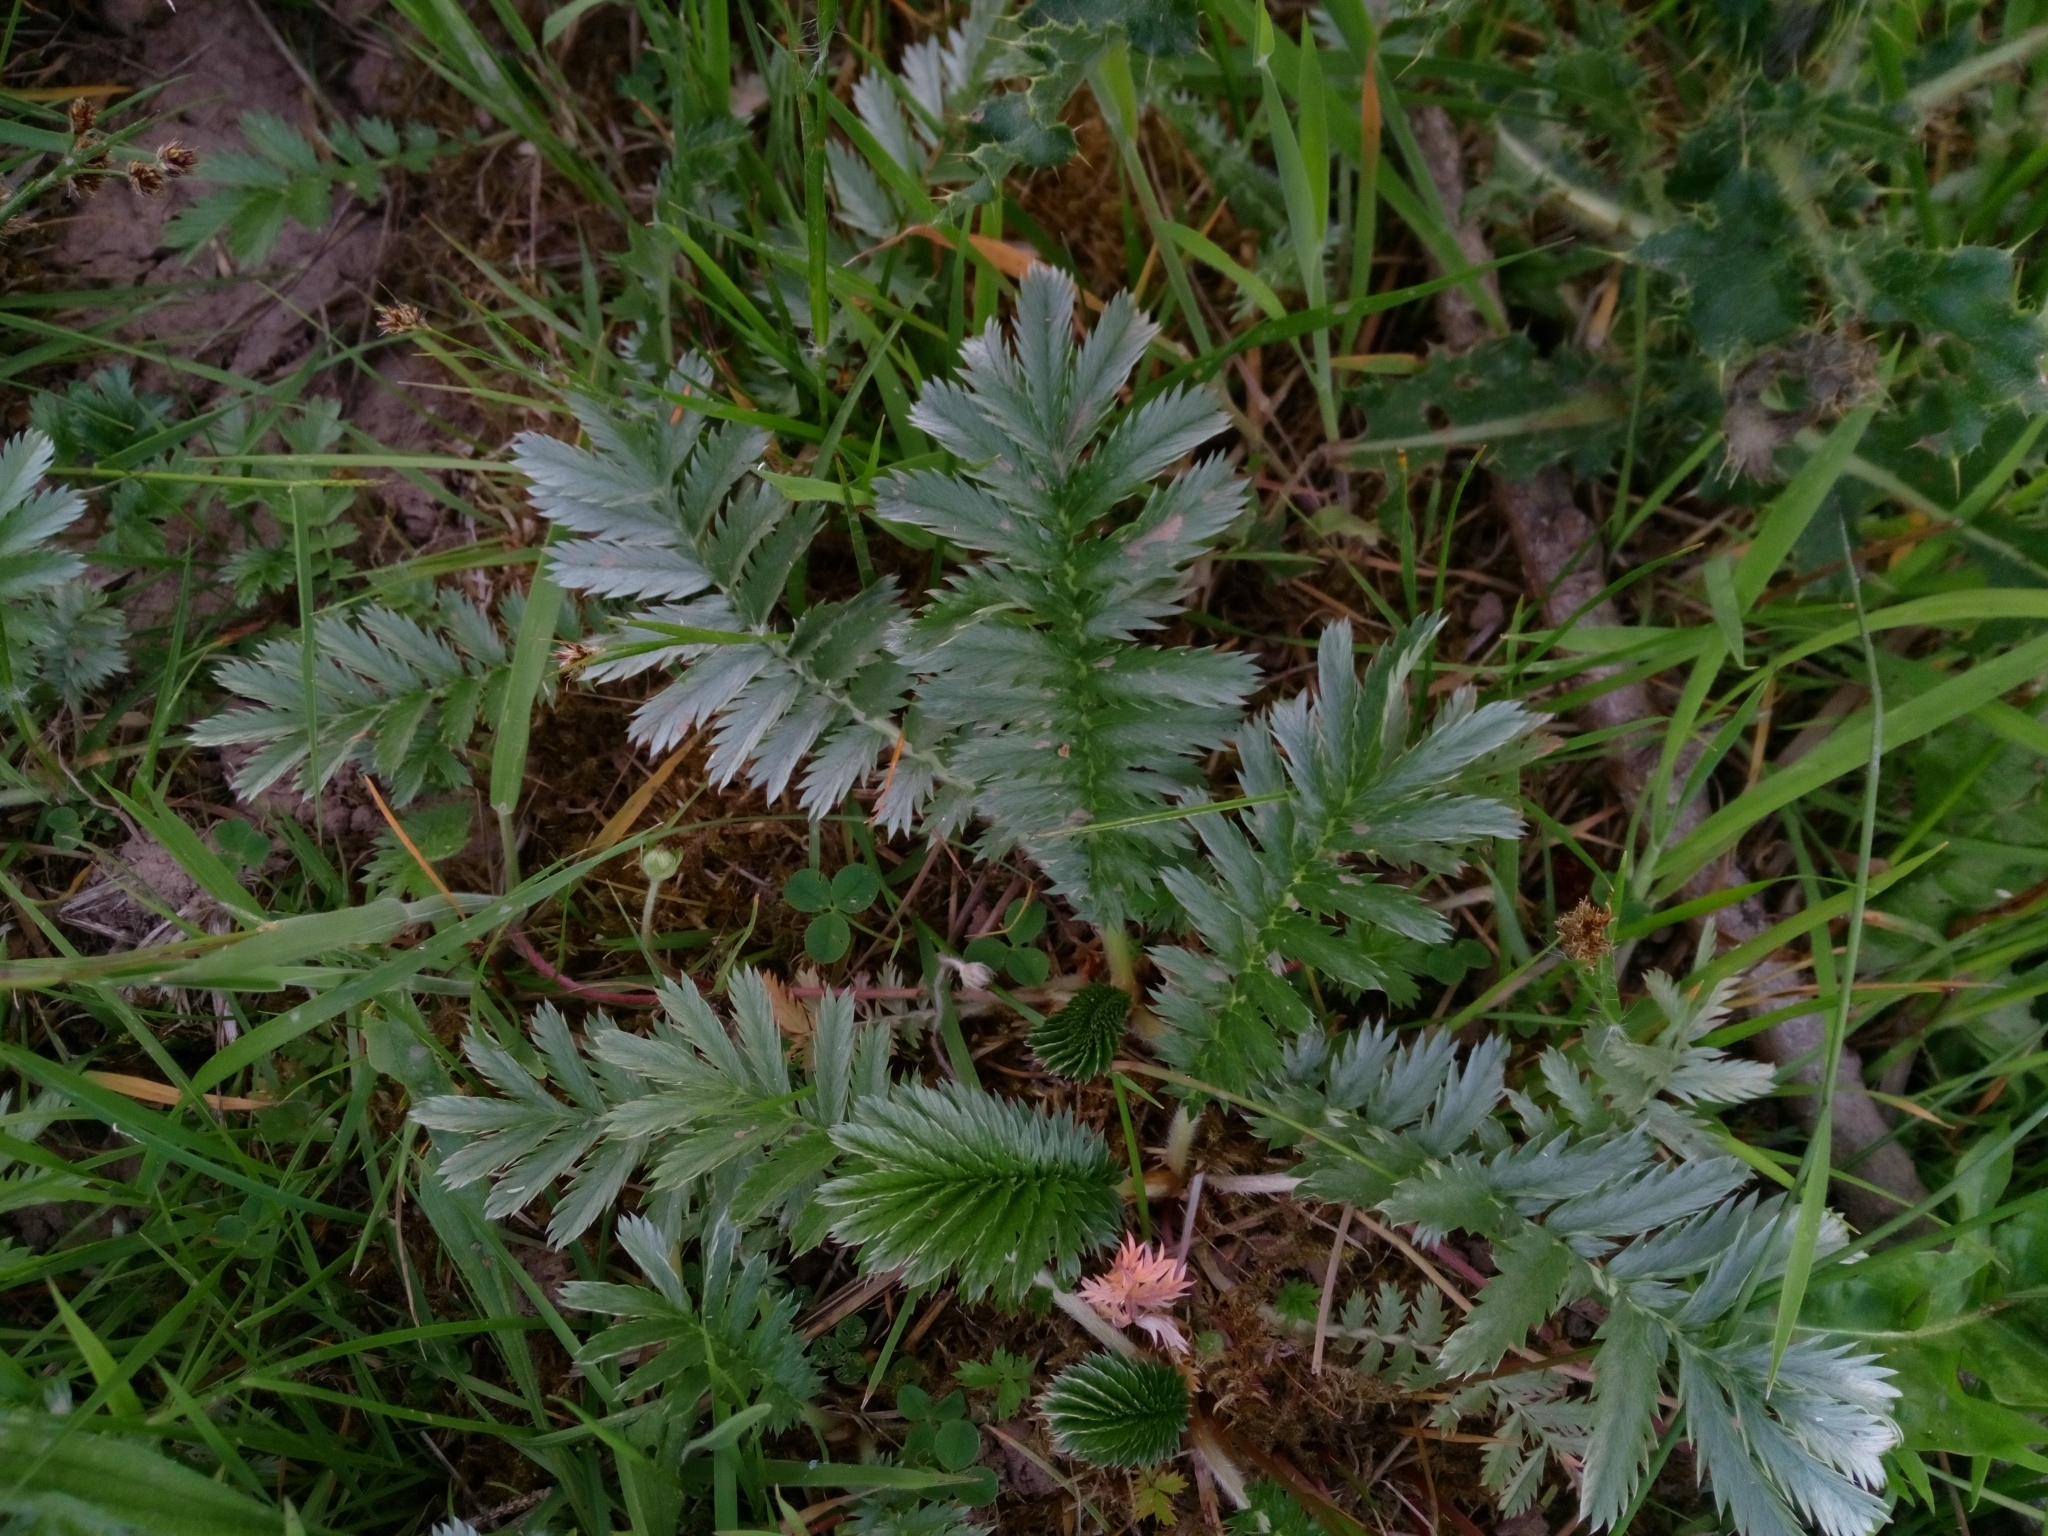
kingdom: Plantae
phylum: Tracheophyta
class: Magnoliopsida
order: Rosales
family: Rosaceae
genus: Argentina
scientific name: Argentina anserina
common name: Common silverweed
